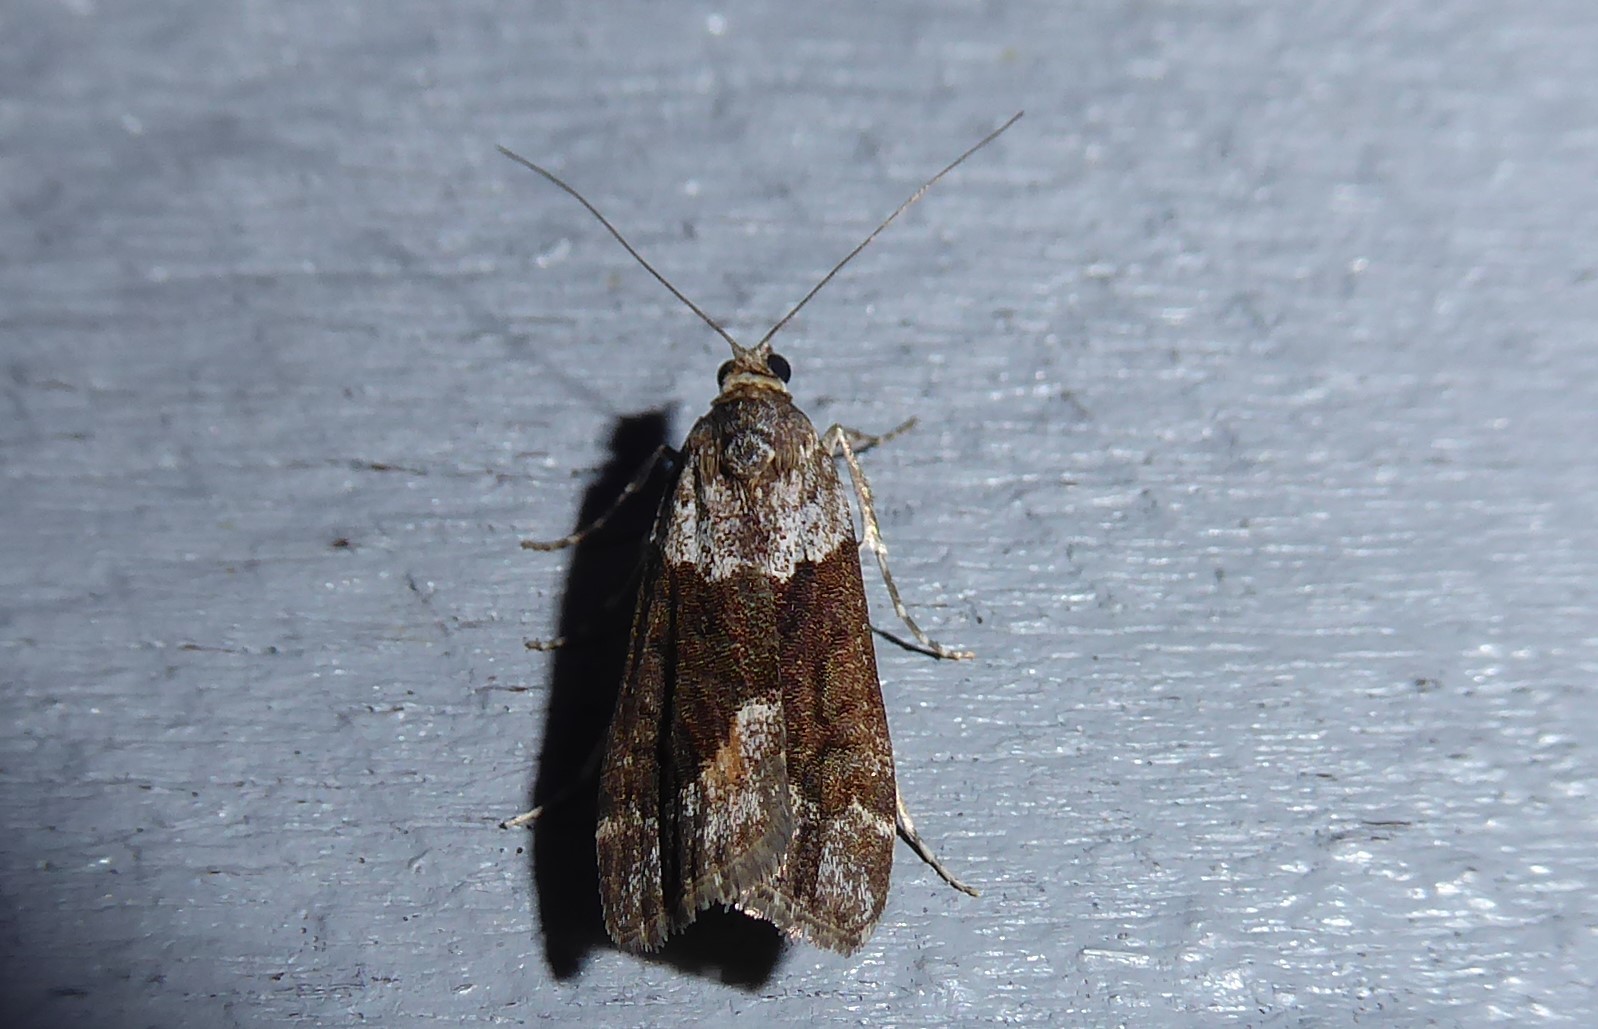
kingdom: Animalia
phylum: Arthropoda
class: Insecta
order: Lepidoptera
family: Crambidae
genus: Eudonia
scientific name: Eudonia submarginalis
